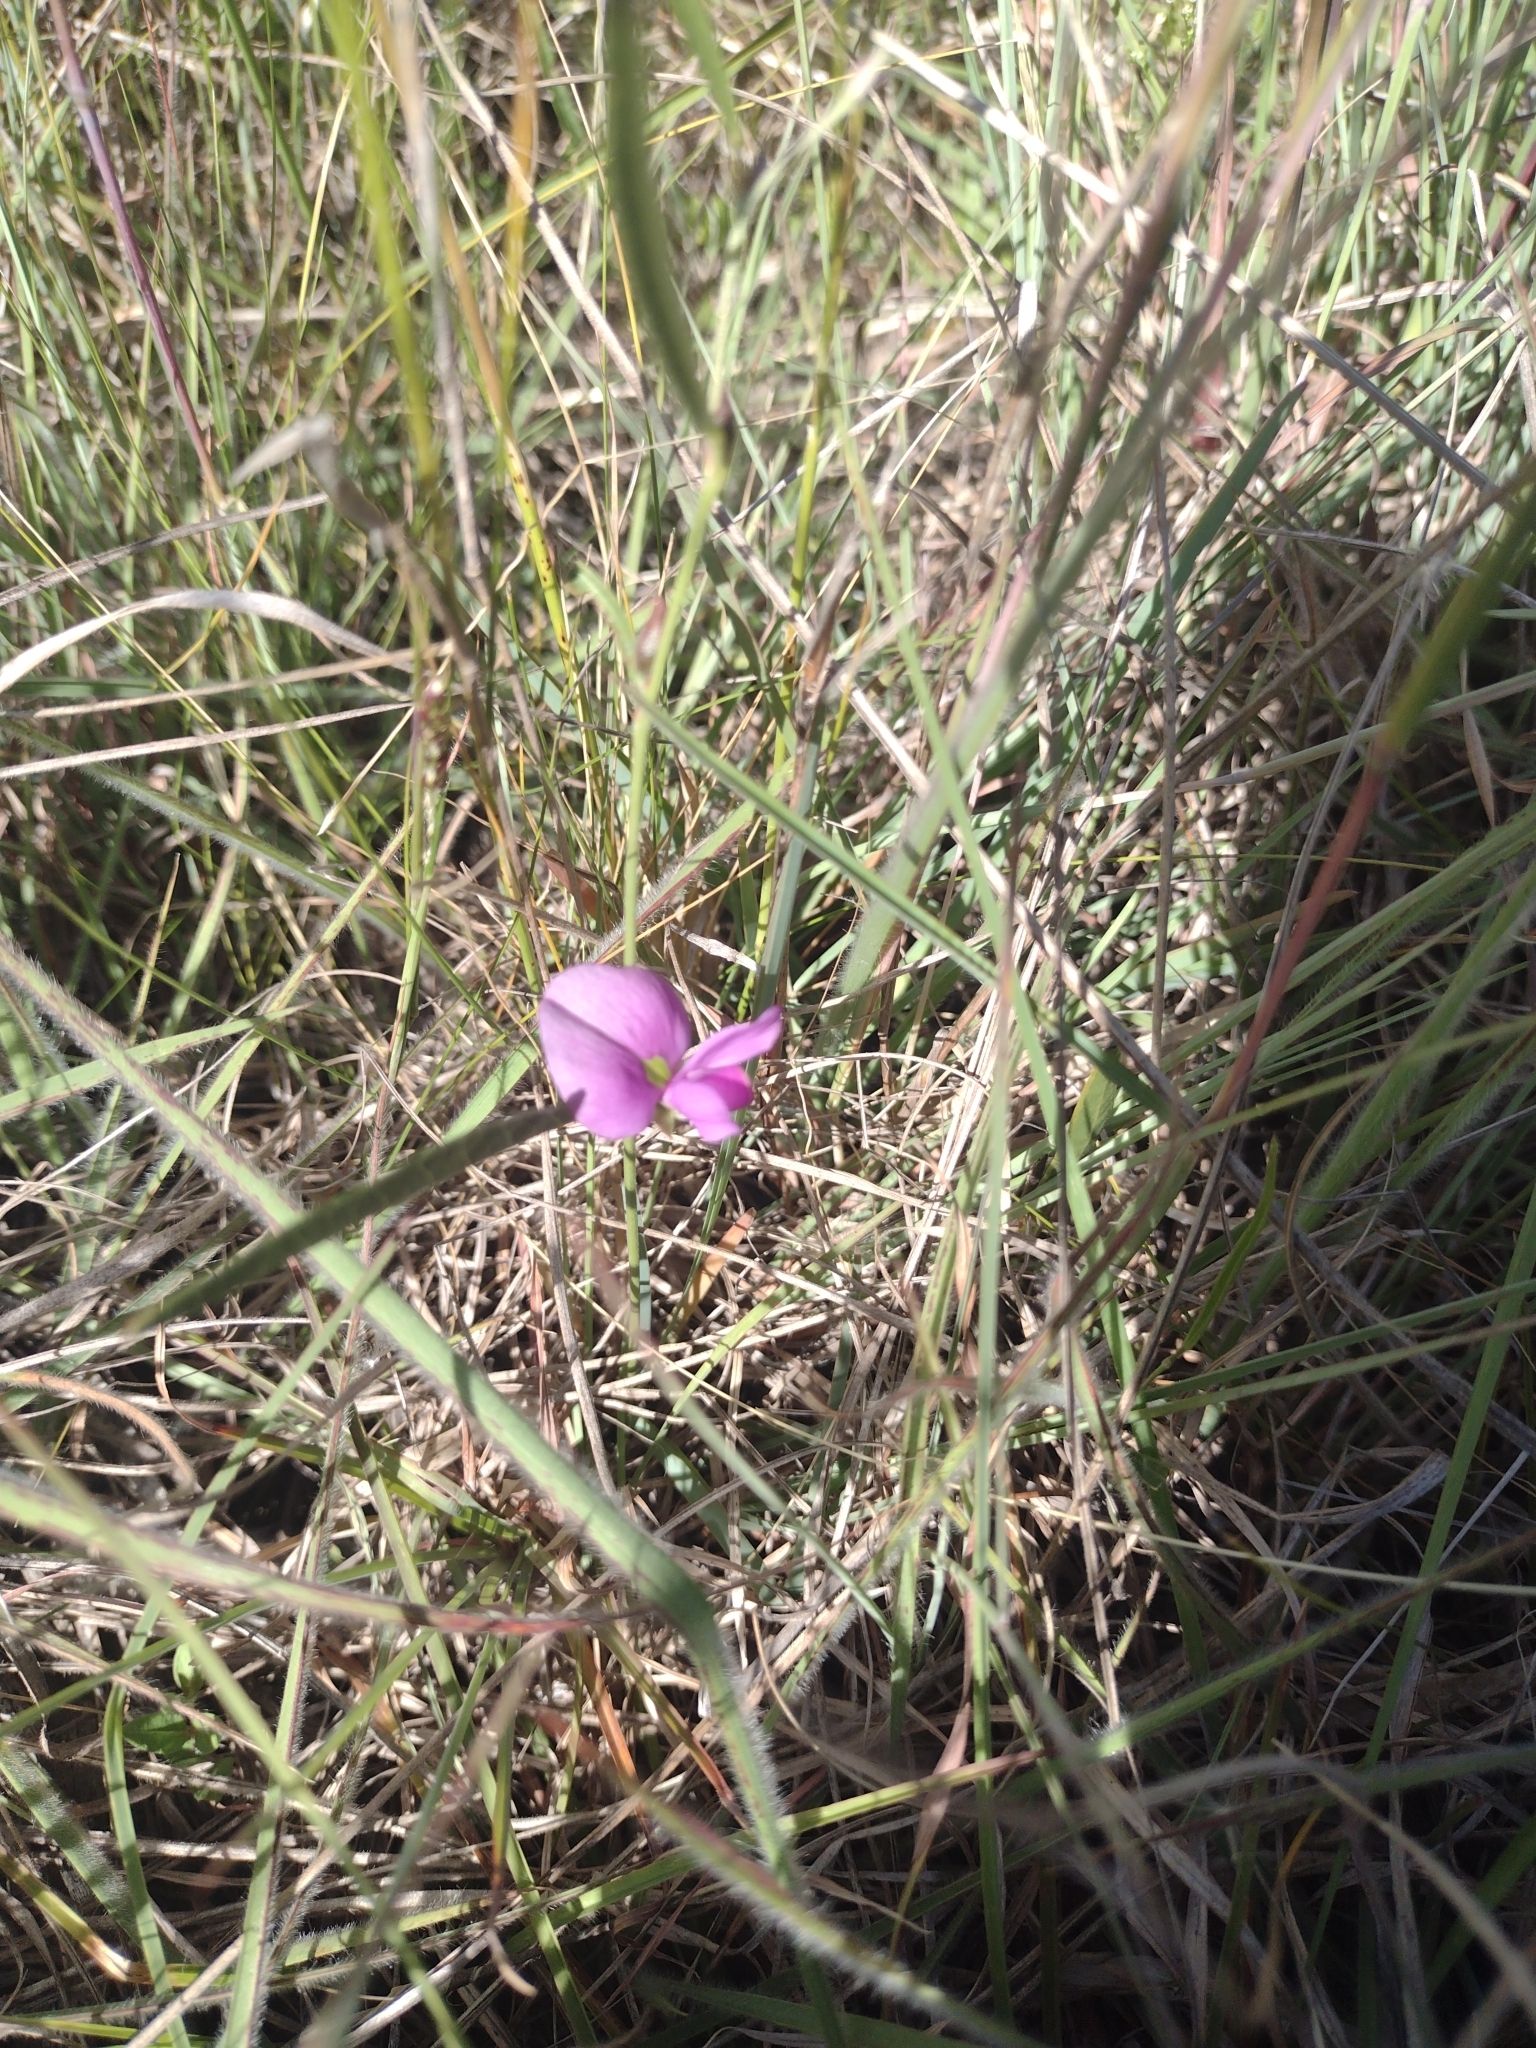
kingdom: Plantae
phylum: Tracheophyta
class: Magnoliopsida
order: Fabales
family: Fabaceae
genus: Nanogalactia
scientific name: Nanogalactia heterophylla
